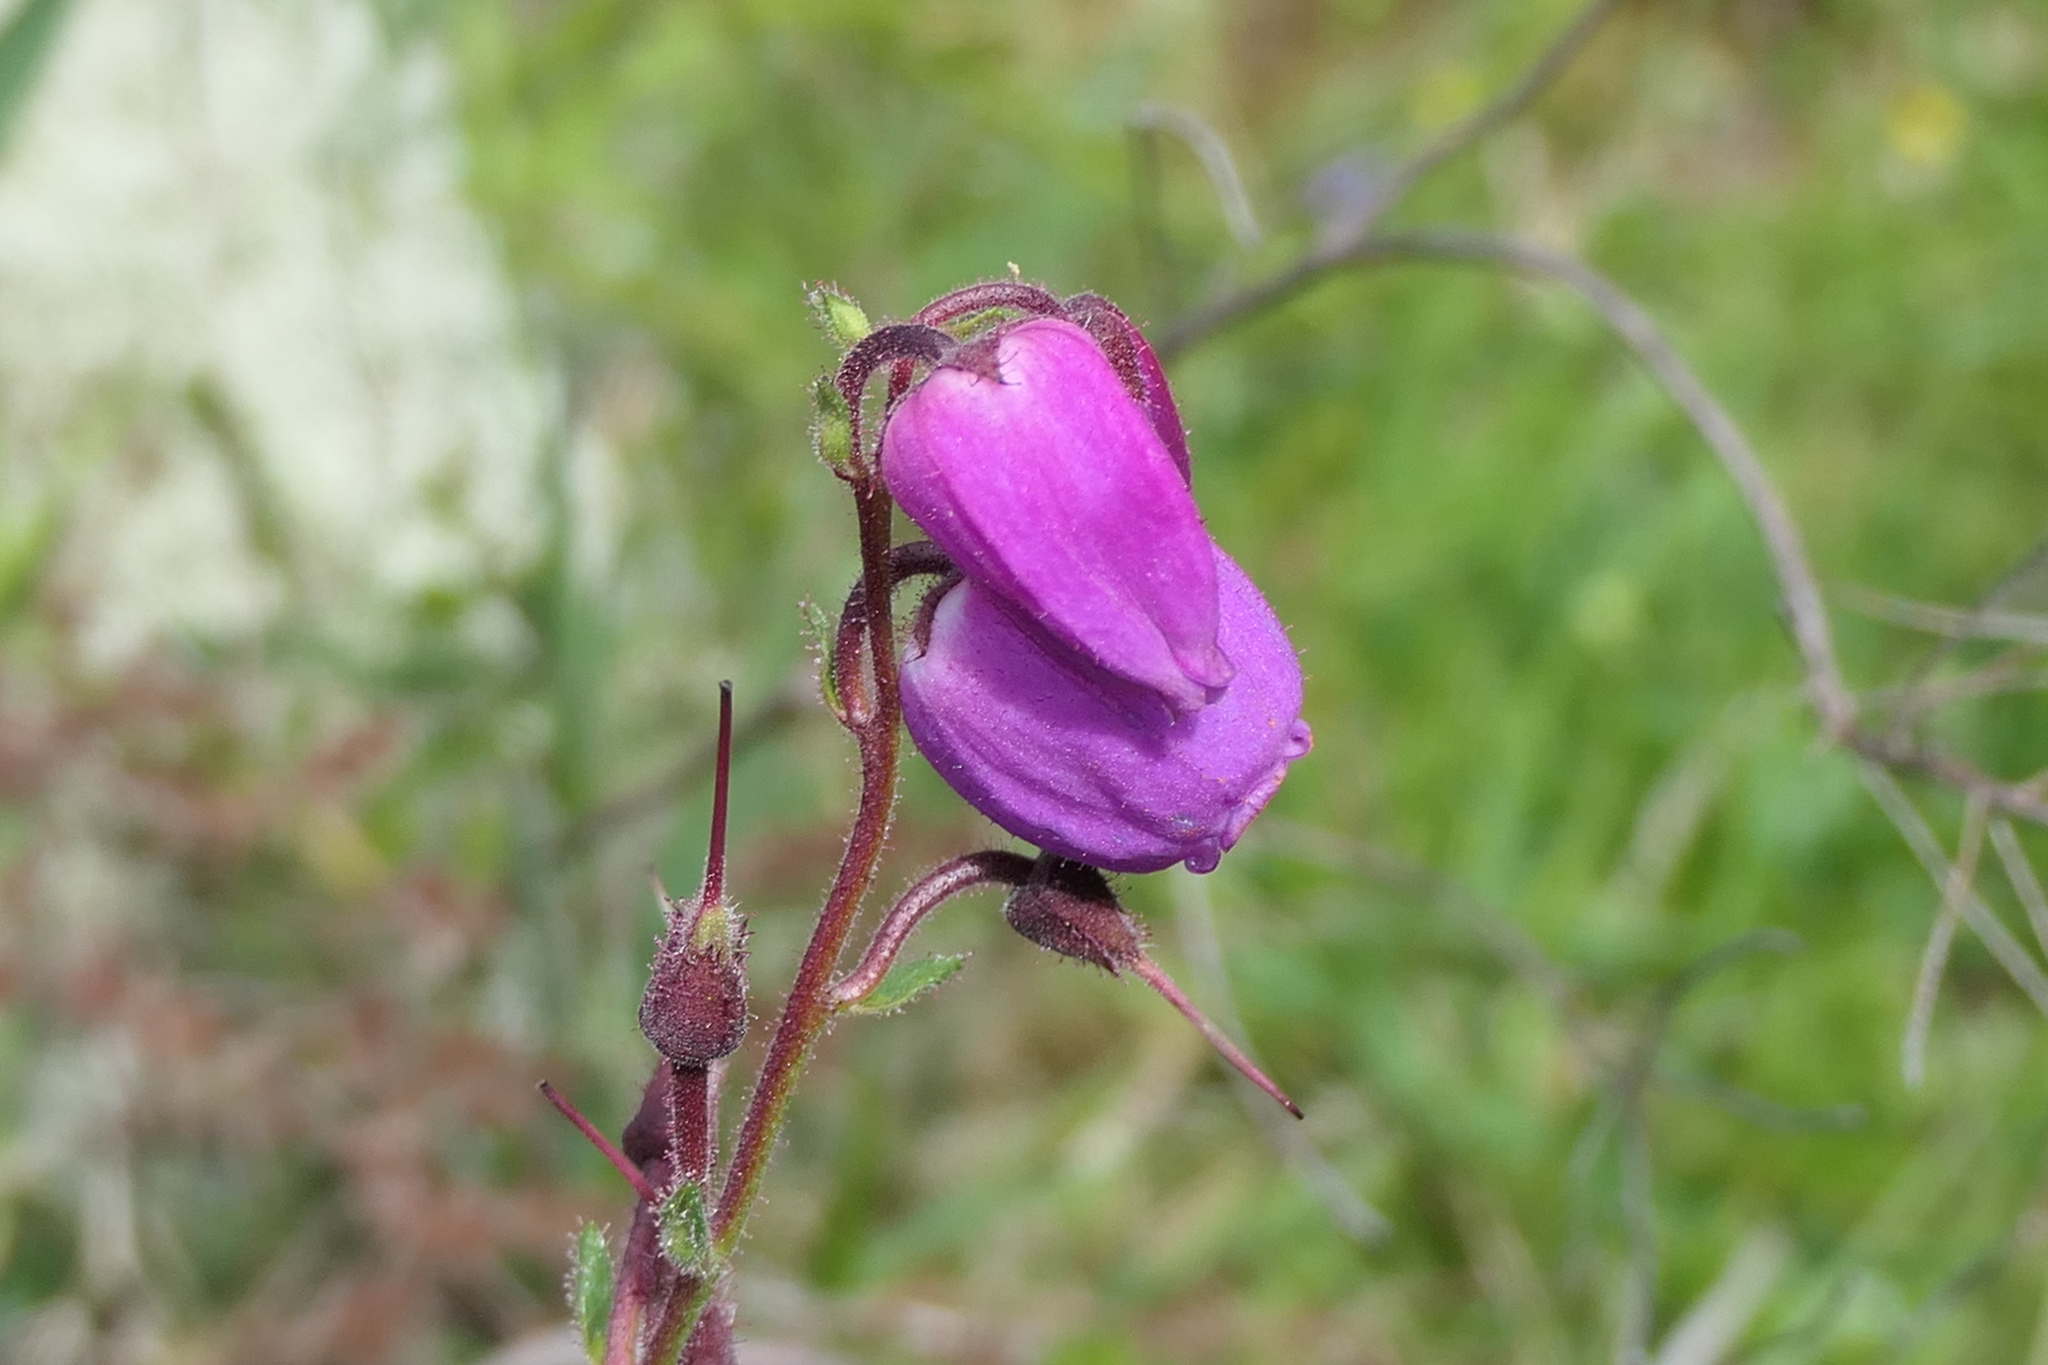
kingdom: Plantae
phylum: Tracheophyta
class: Magnoliopsida
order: Ericales
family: Ericaceae
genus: Daboecia
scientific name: Daboecia cantabrica
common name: St. dabeoc's-heath
